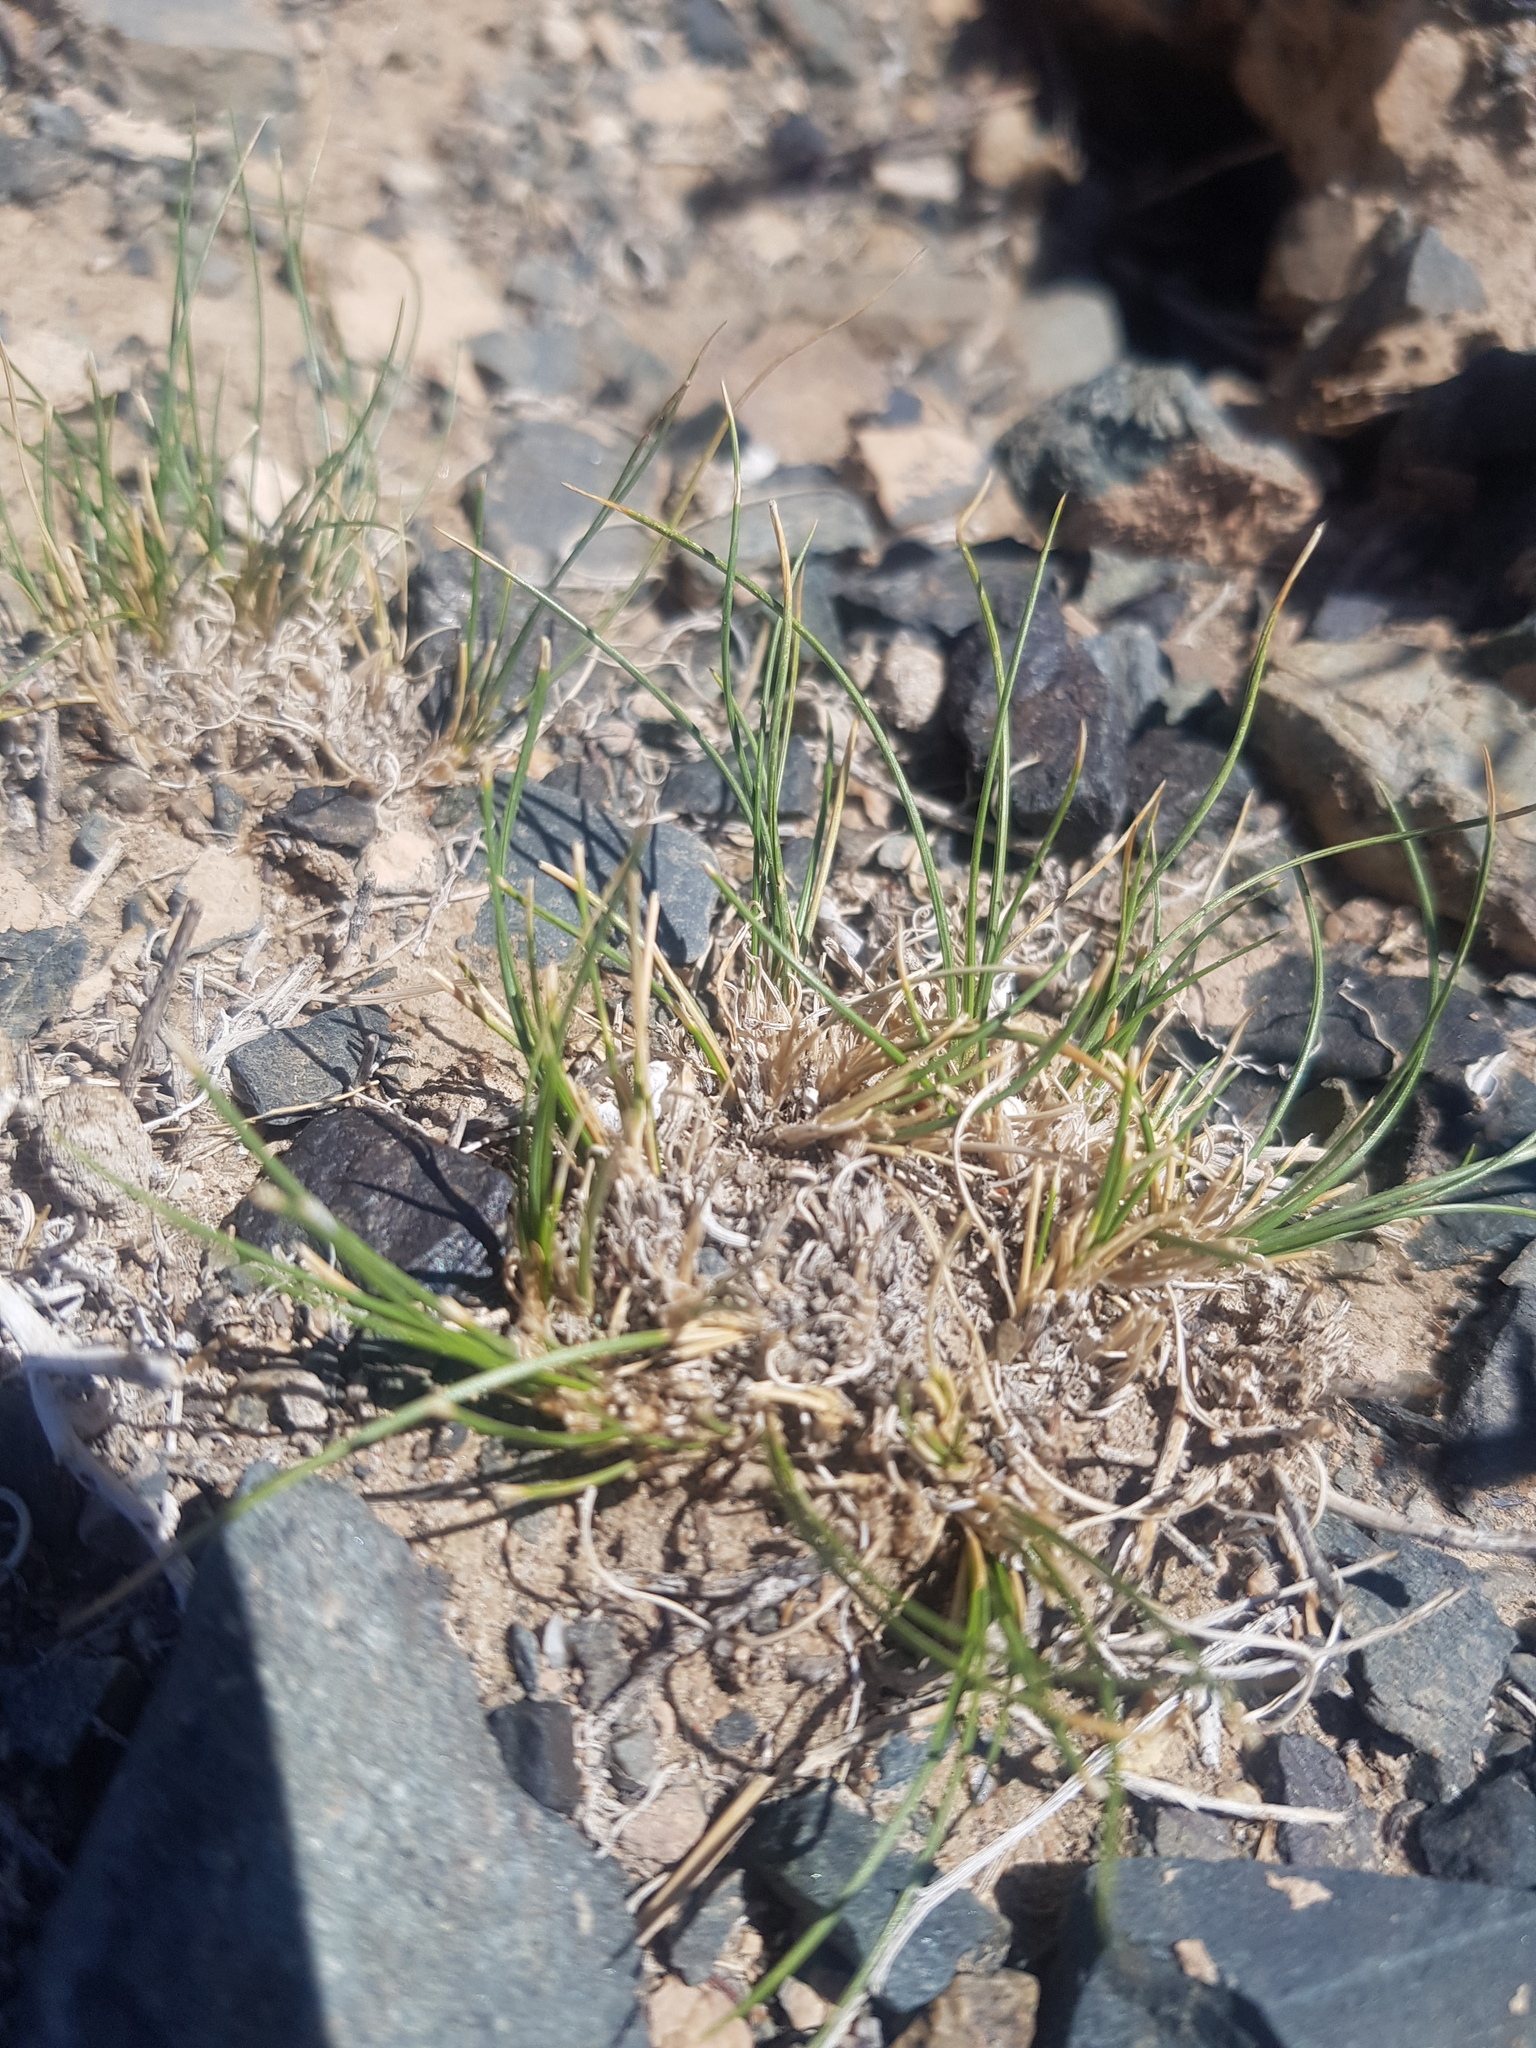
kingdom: Plantae
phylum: Tracheophyta
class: Liliopsida
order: Poales
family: Poaceae
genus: Stipa
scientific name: Stipa glareosa
